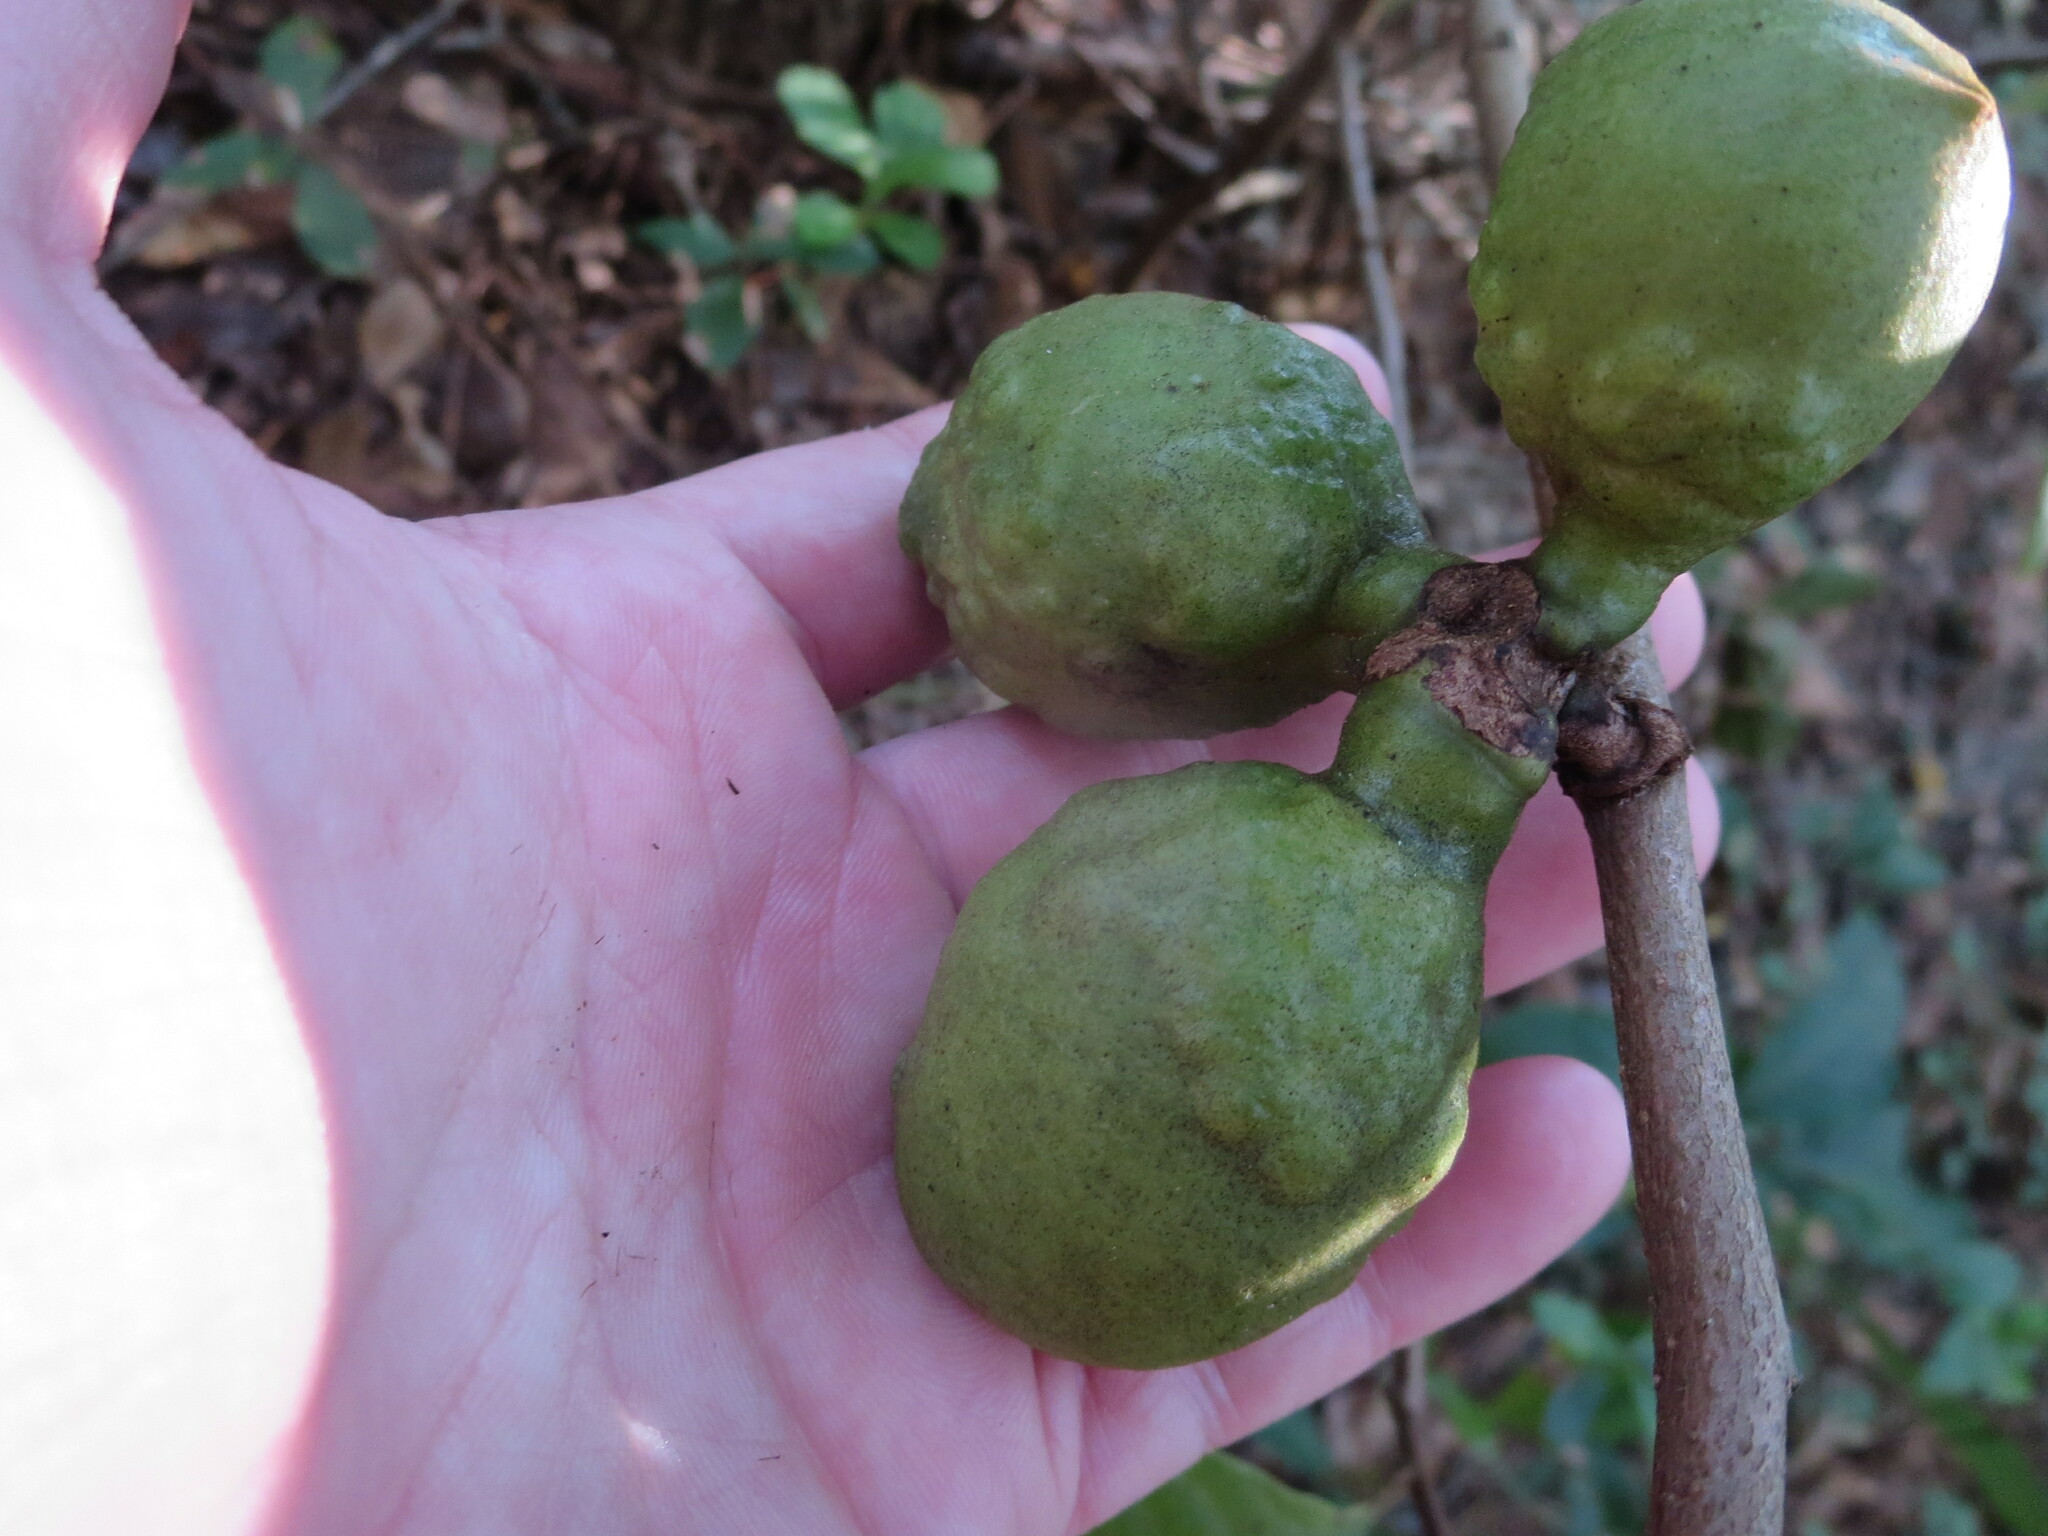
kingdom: Plantae
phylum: Tracheophyta
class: Magnoliopsida
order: Magnoliales
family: Annonaceae
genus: Asimina
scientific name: Asimina parviflora
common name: Dwarf pawpaw
